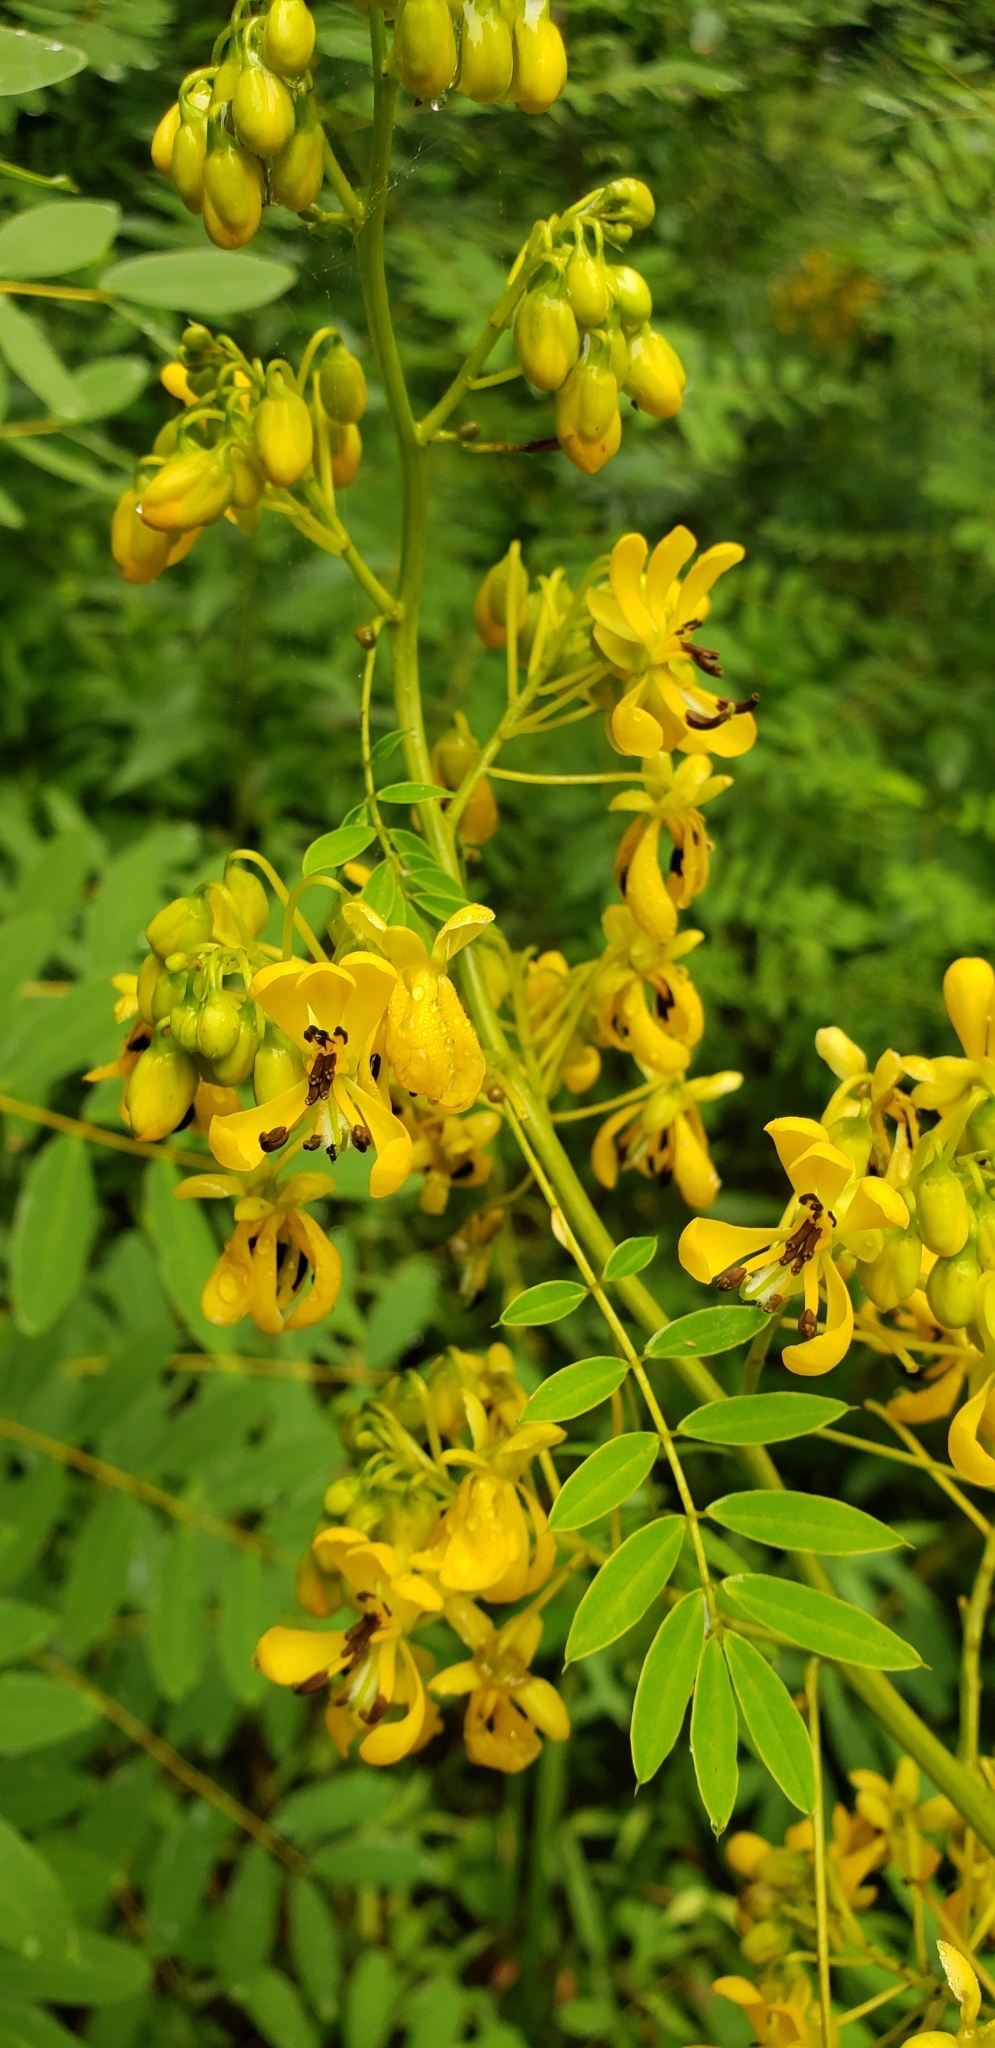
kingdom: Plantae
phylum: Tracheophyta
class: Magnoliopsida
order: Fabales
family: Fabaceae
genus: Senna
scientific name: Senna hebecarpa
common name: Wild senna
